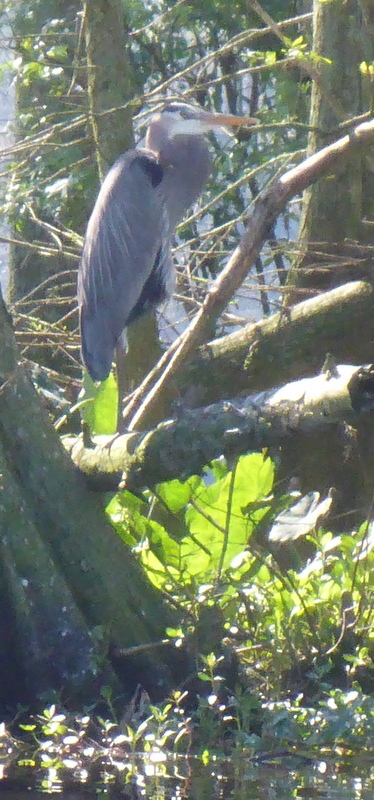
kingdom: Animalia
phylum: Chordata
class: Aves
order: Pelecaniformes
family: Ardeidae
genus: Ardea
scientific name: Ardea herodias
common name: Great blue heron
